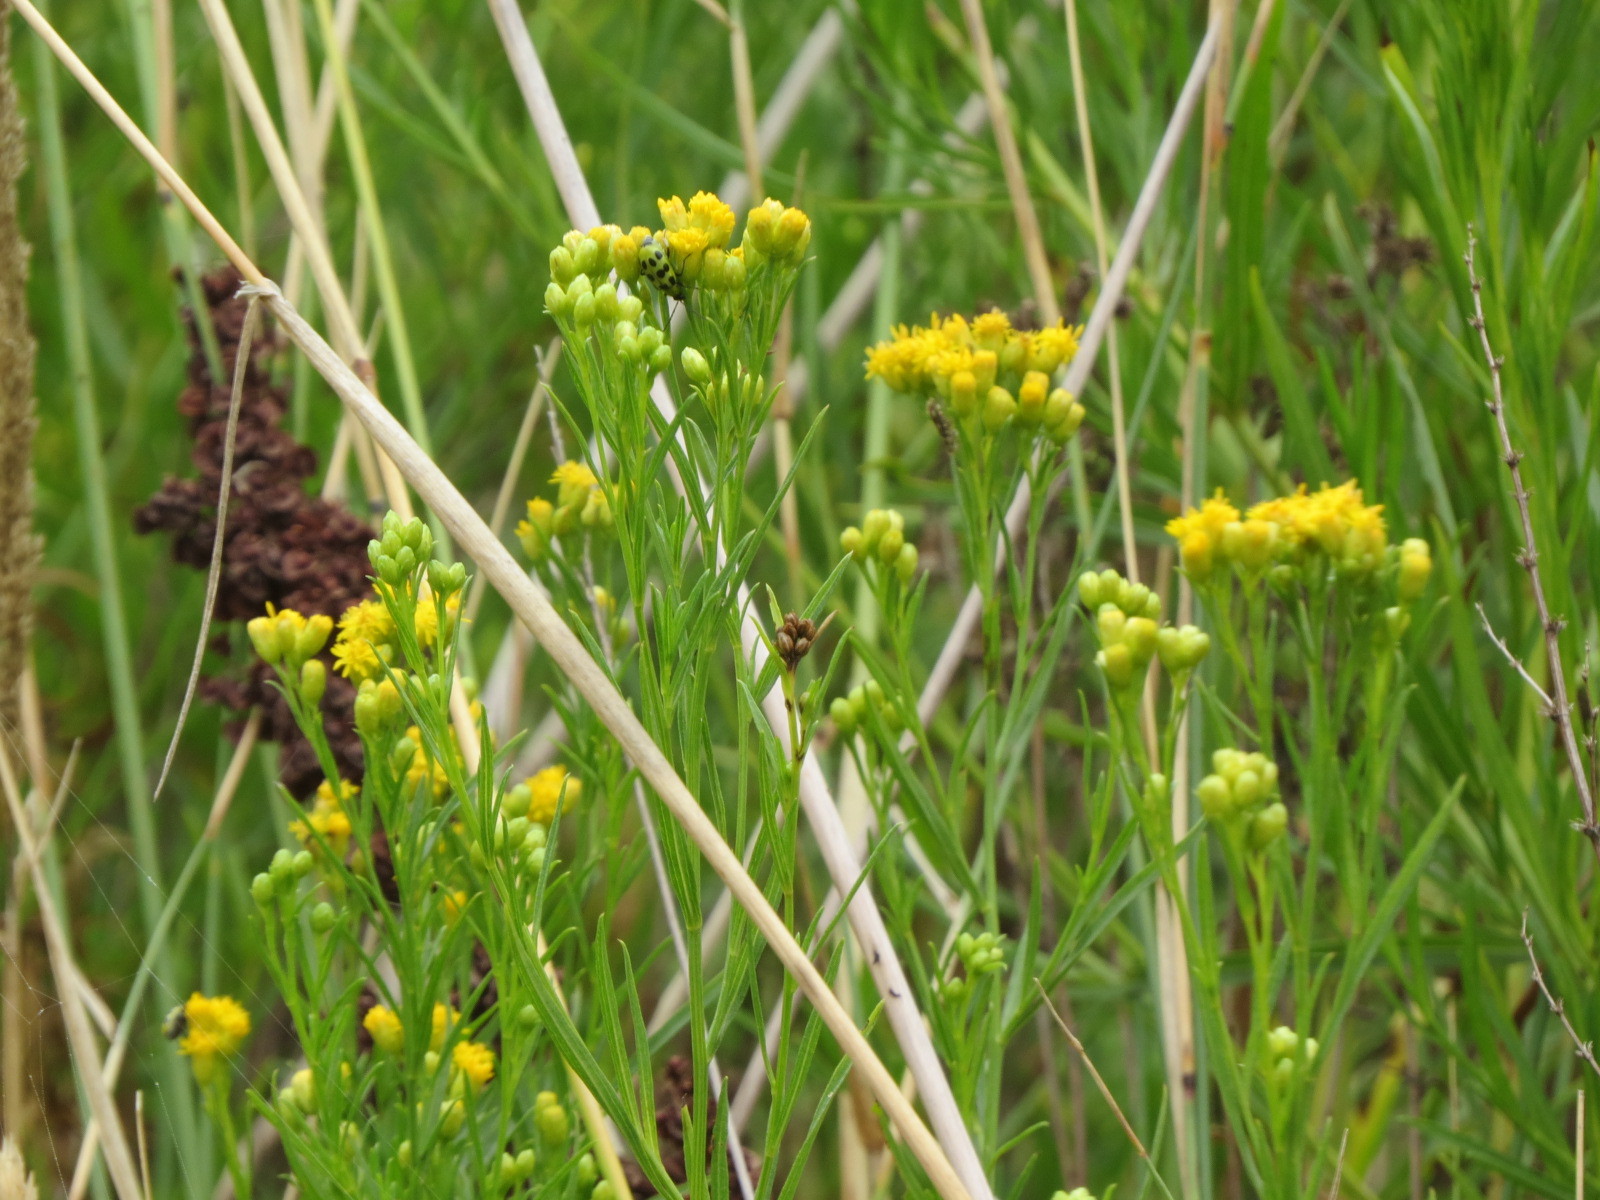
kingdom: Plantae
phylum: Tracheophyta
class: Magnoliopsida
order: Asterales
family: Asteraceae
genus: Euthamia
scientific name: Euthamia occidentalis
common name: Western goldentop
